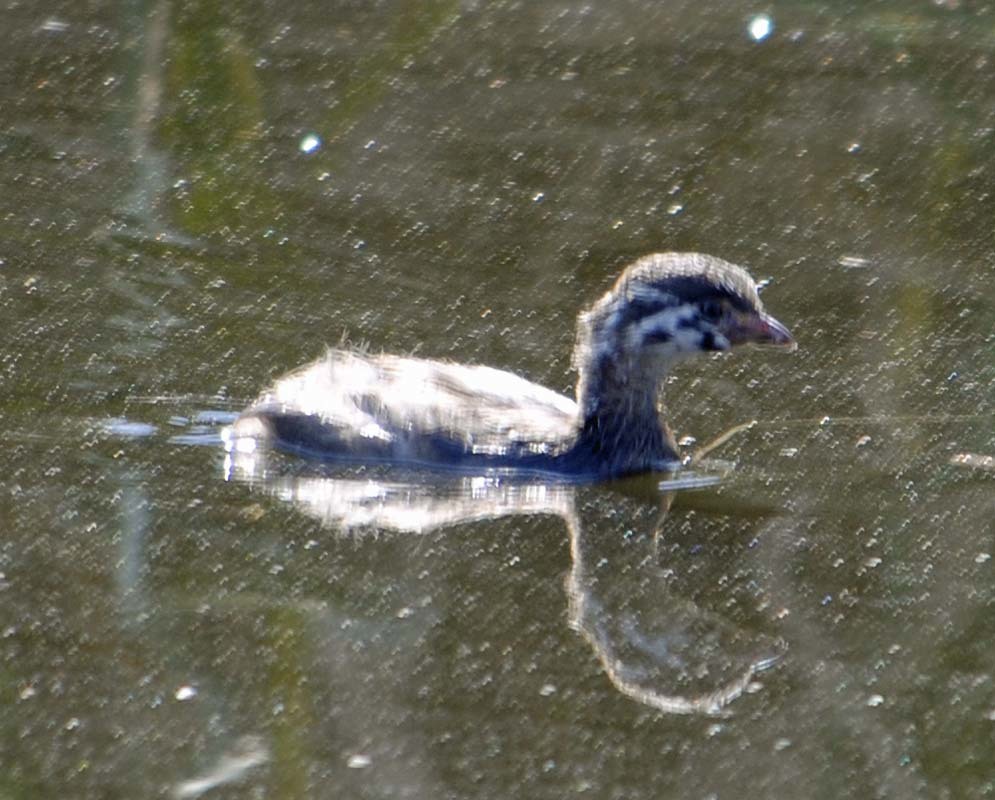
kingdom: Animalia
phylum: Chordata
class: Aves
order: Podicipediformes
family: Podicipedidae
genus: Podilymbus
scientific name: Podilymbus podiceps
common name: Pied-billed grebe
